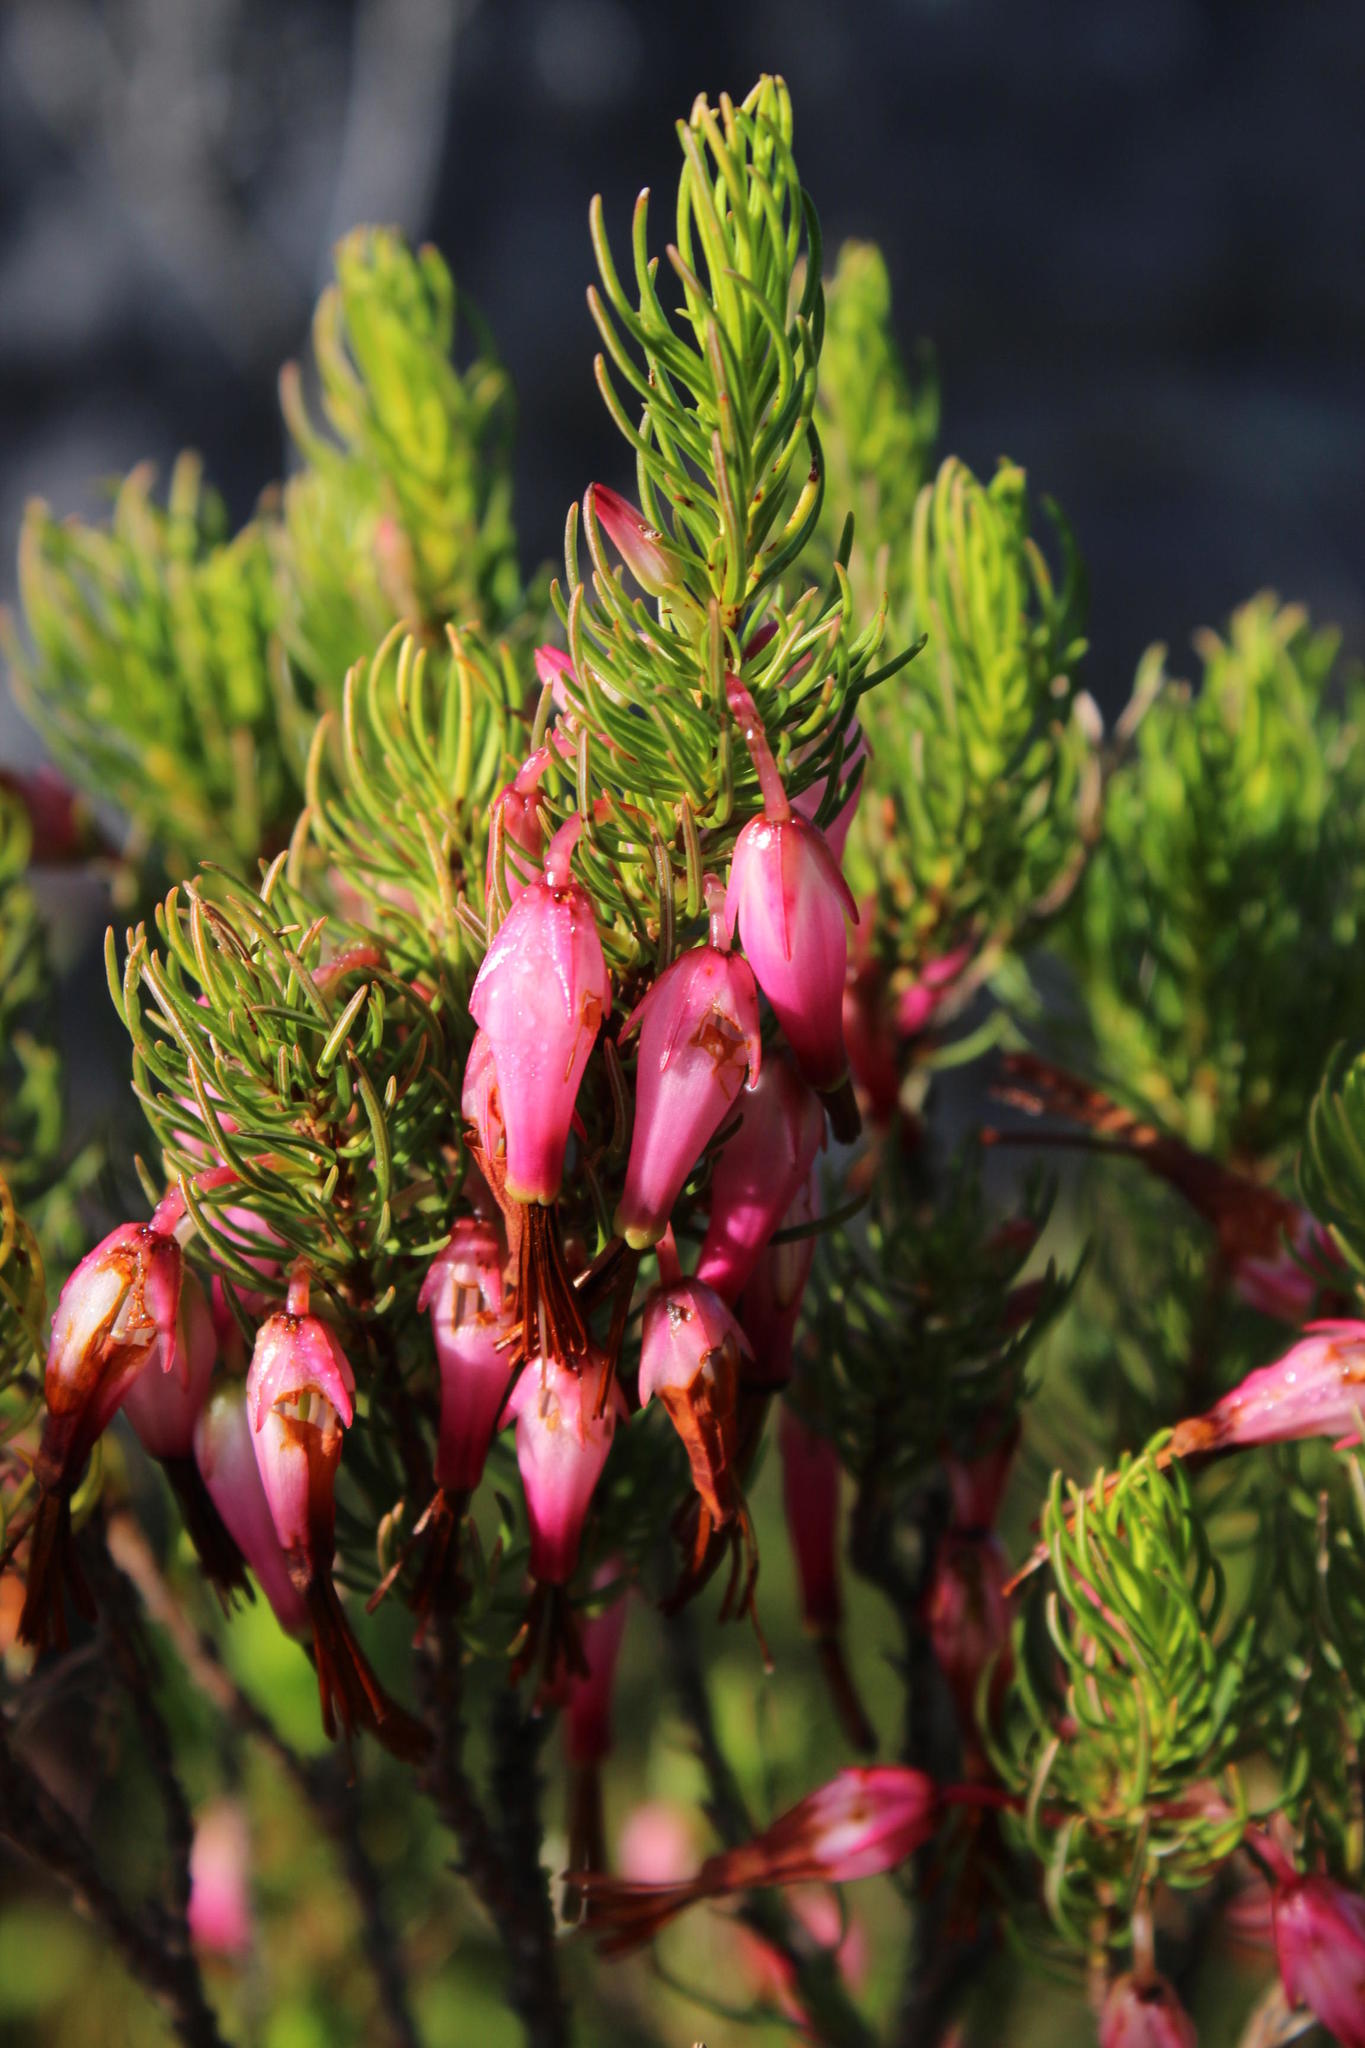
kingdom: Plantae
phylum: Tracheophyta
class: Magnoliopsida
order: Ericales
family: Ericaceae
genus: Erica
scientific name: Erica plukenetii
